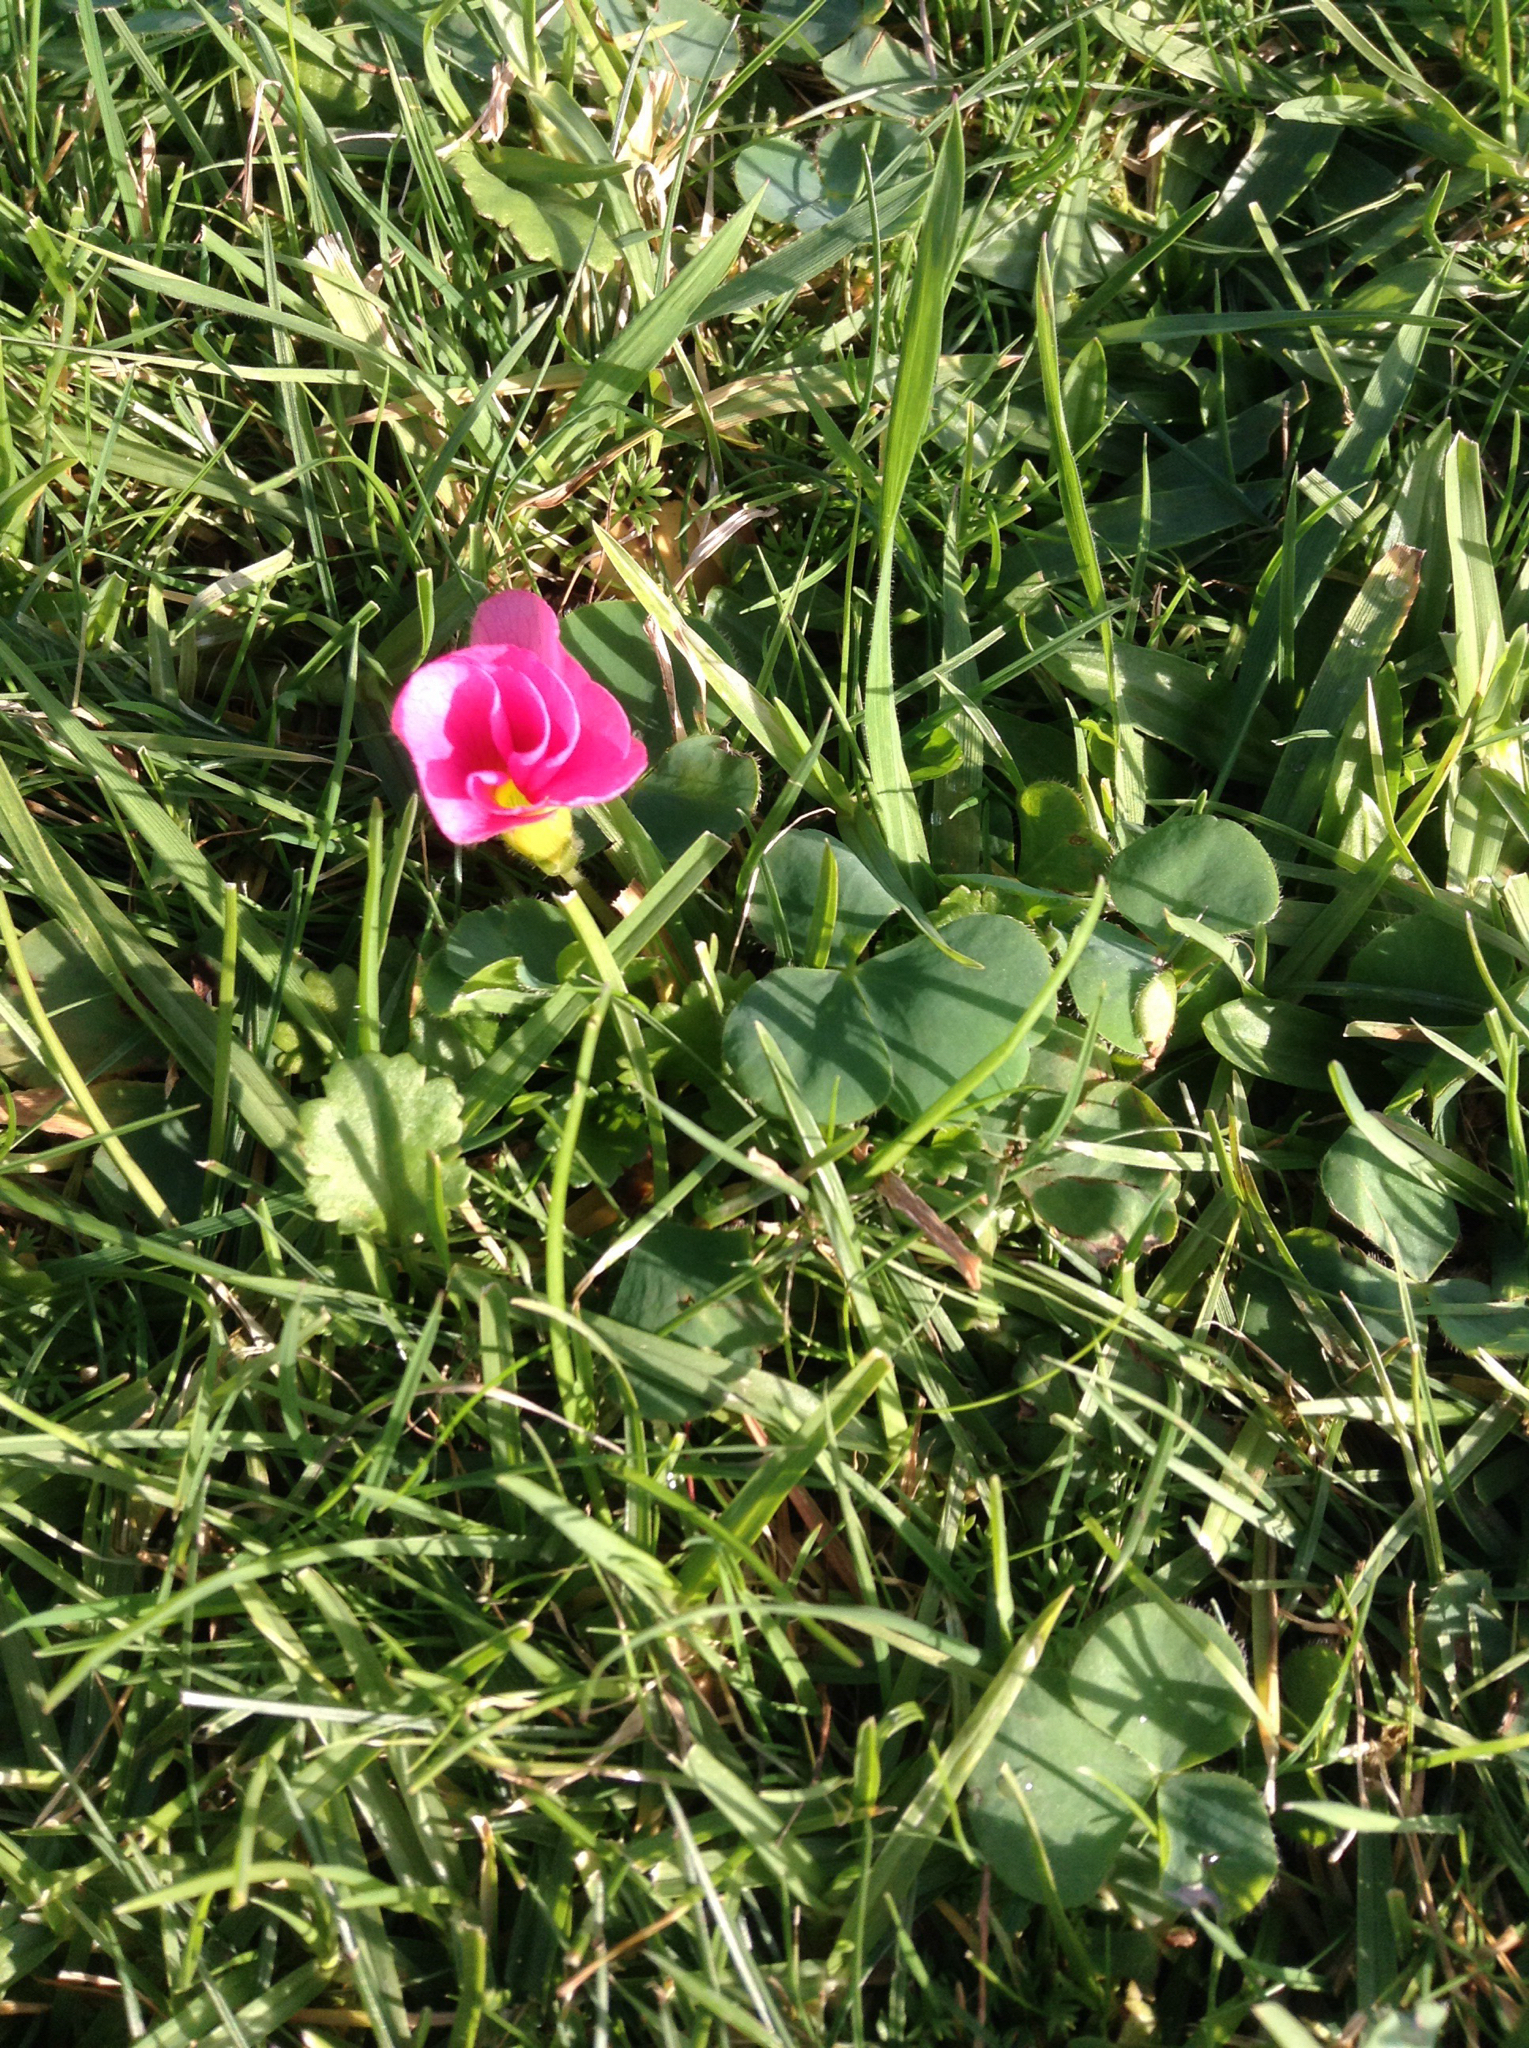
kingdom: Plantae
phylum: Tracheophyta
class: Magnoliopsida
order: Oxalidales
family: Oxalidaceae
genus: Oxalis
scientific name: Oxalis purpurea
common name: Purple woodsorrel
